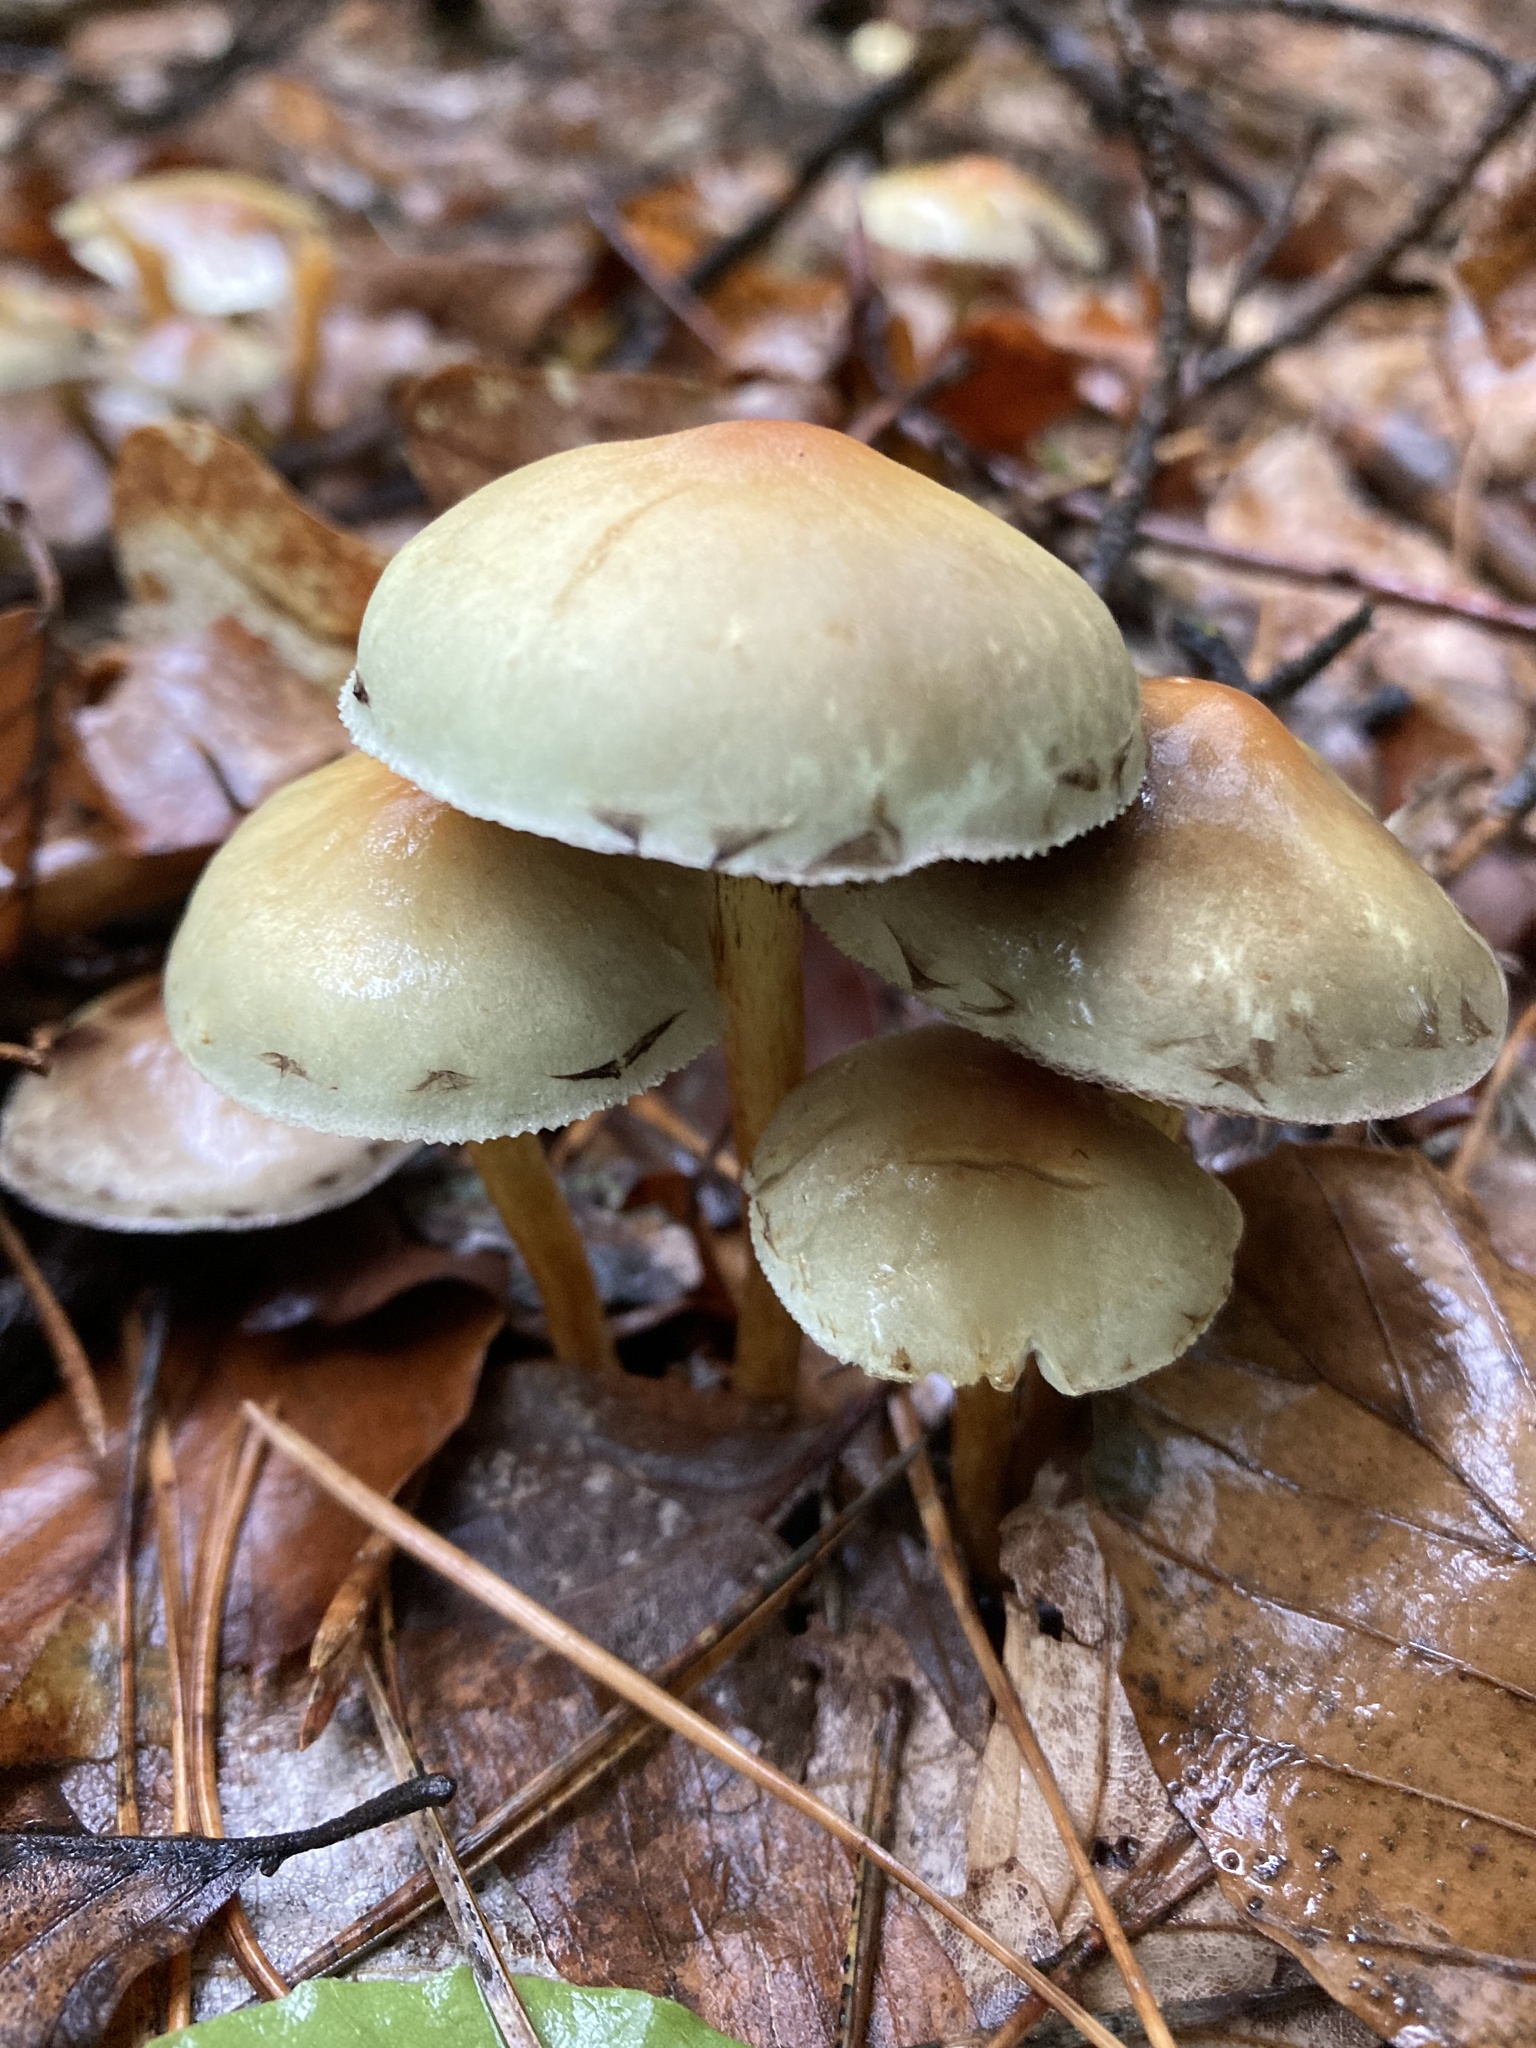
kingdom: Fungi
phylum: Basidiomycota
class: Agaricomycetes
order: Agaricales
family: Strophariaceae
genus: Hypholoma
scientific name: Hypholoma fasciculare
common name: Sulphur tuft
